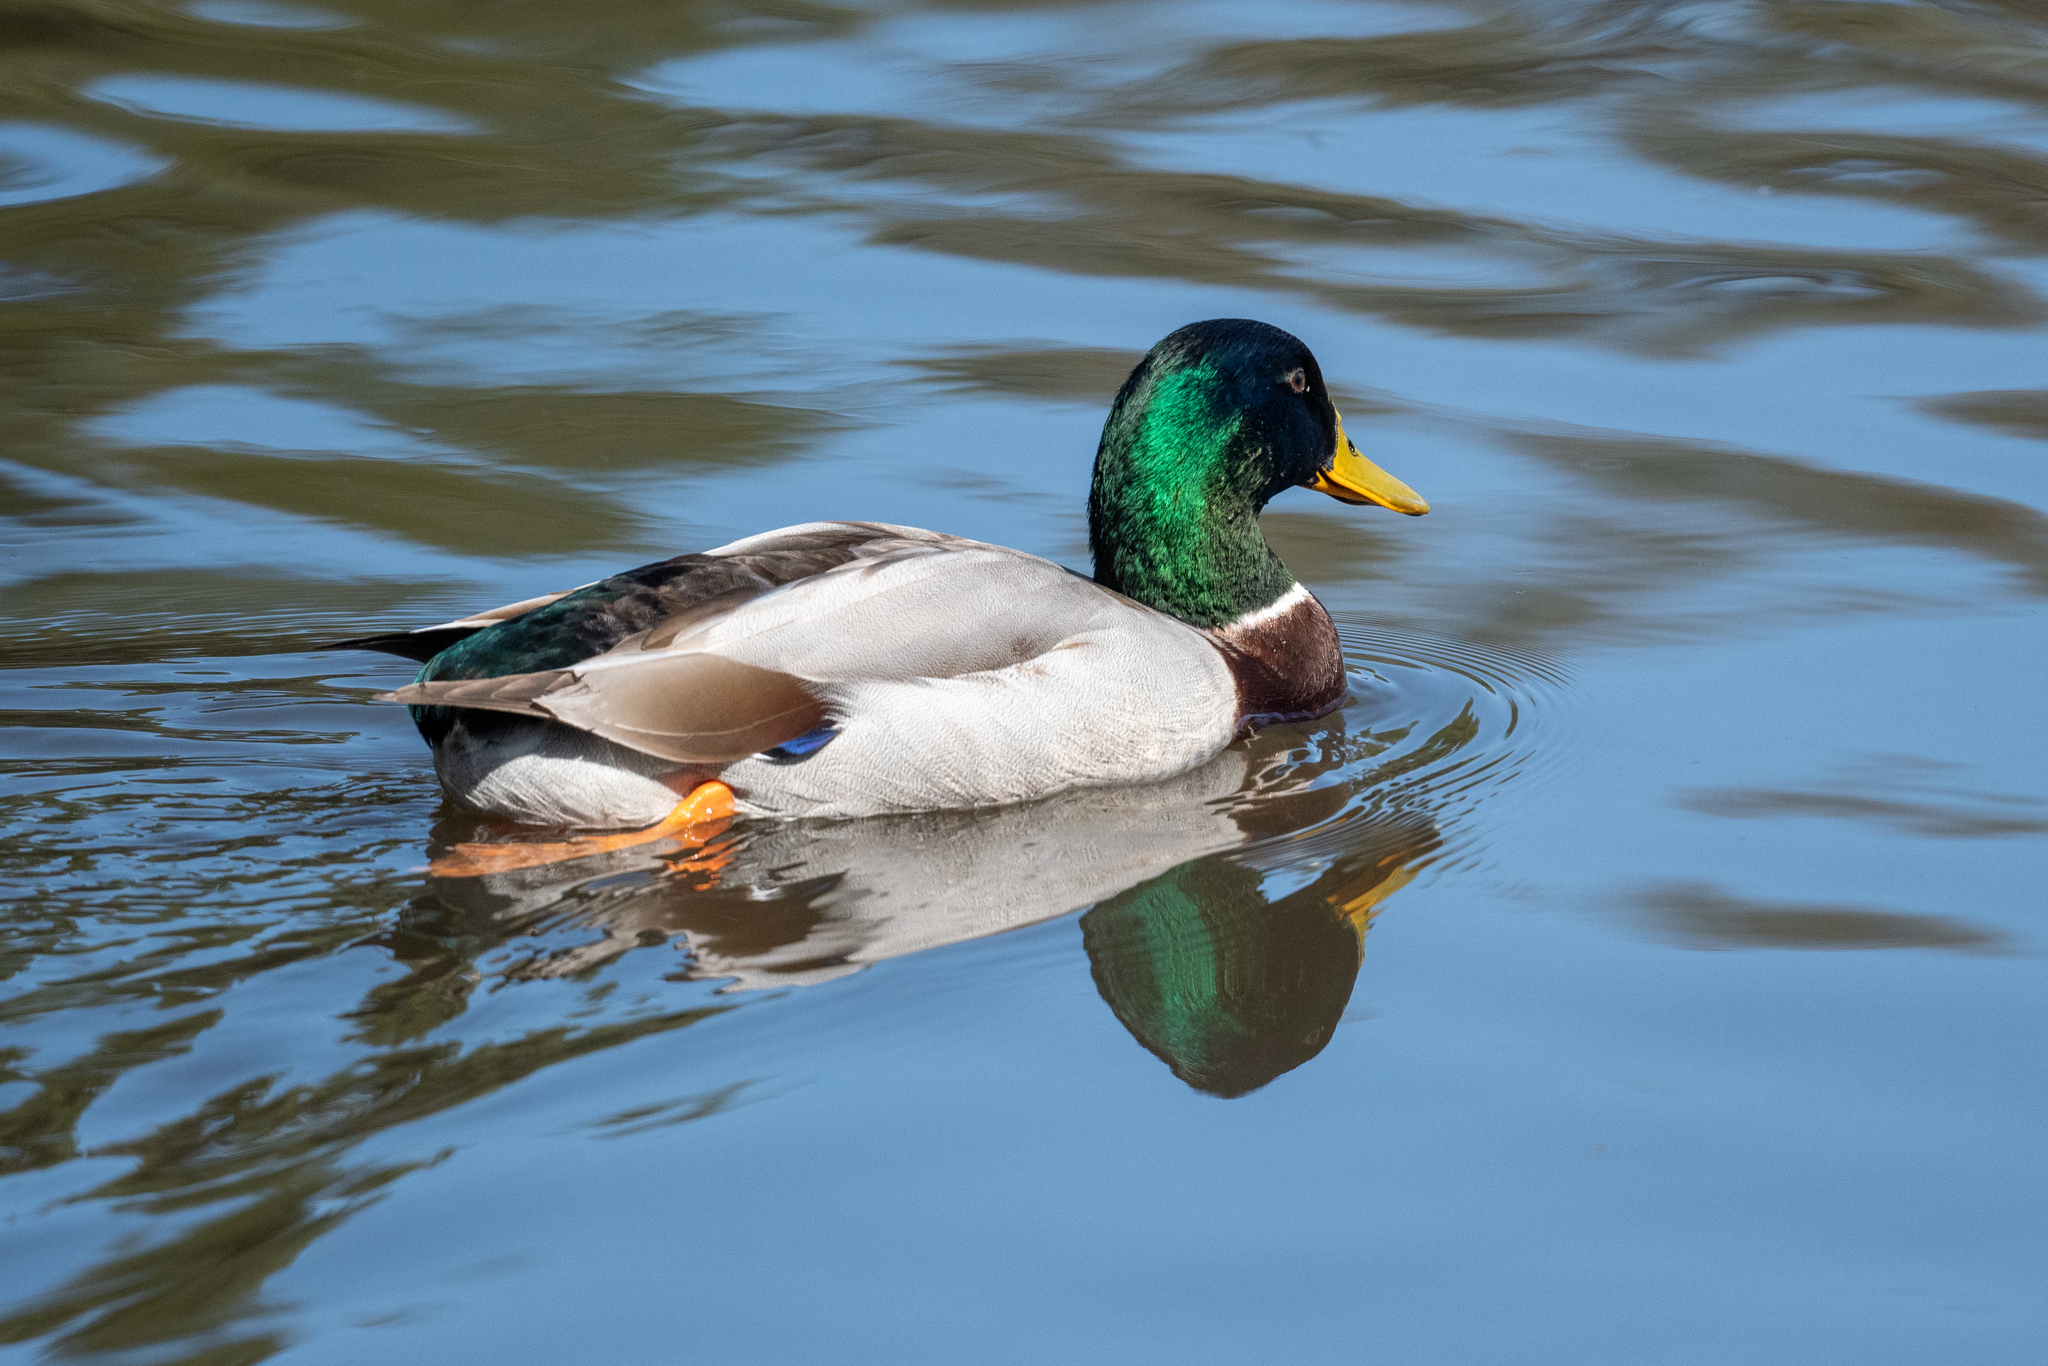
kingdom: Animalia
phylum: Chordata
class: Aves
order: Anseriformes
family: Anatidae
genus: Anas
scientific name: Anas platyrhynchos
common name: Mallard
